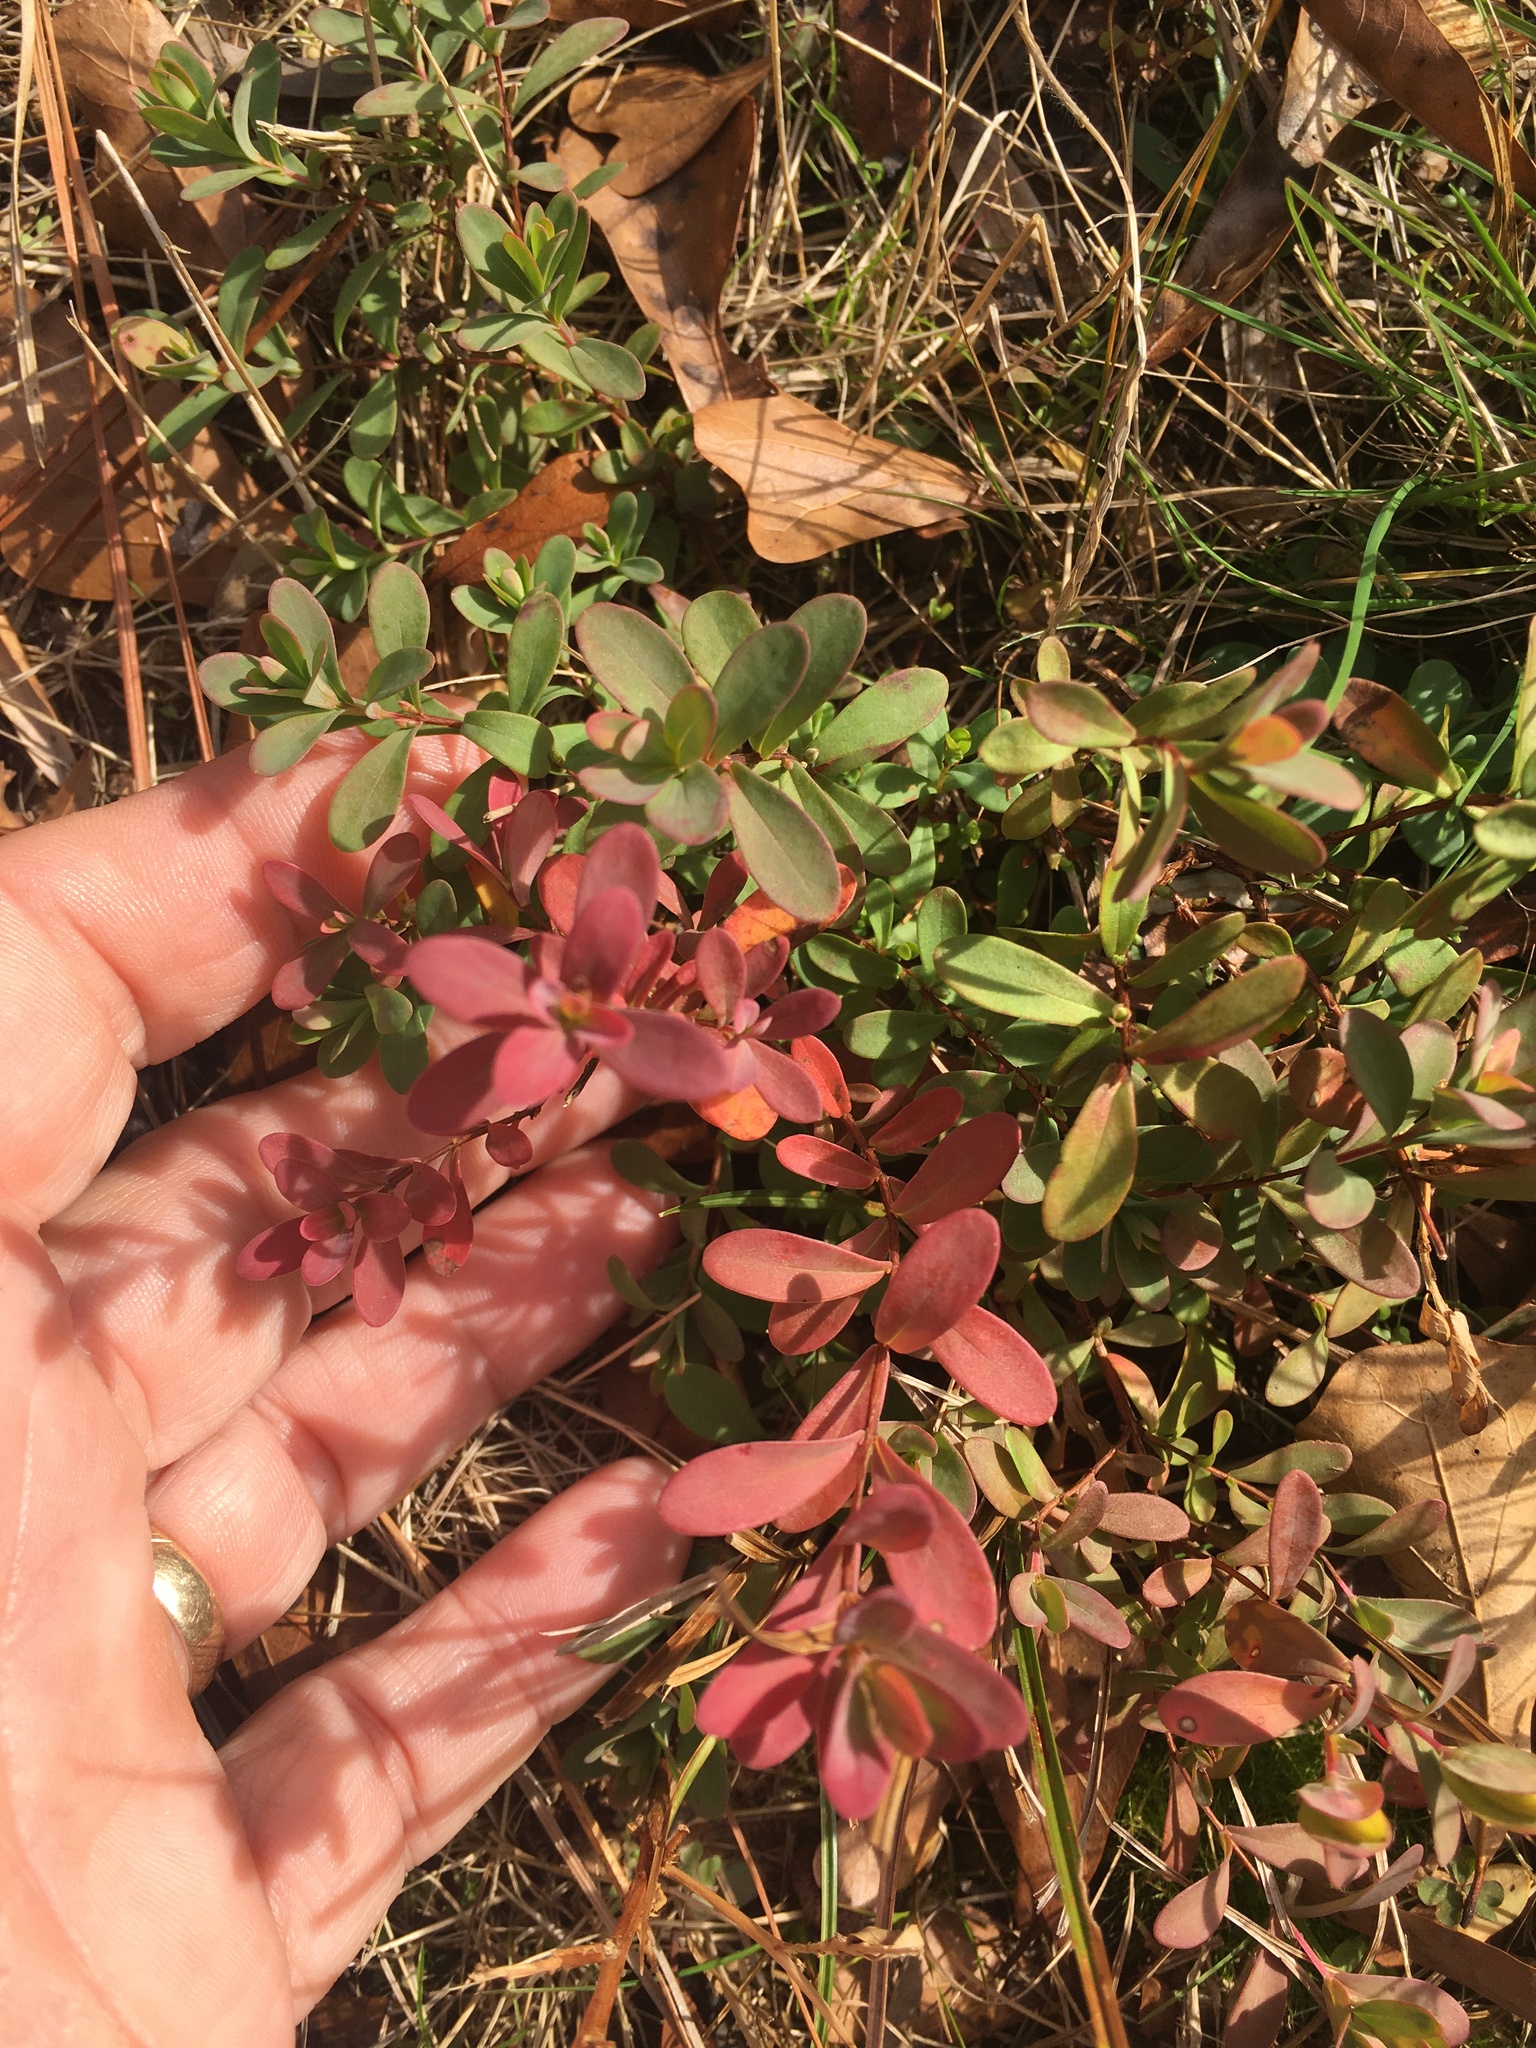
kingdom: Plantae
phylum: Tracheophyta
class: Magnoliopsida
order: Malpighiales
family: Hypericaceae
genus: Hypericum
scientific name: Hypericum hypericoides
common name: St. andrew's cross
